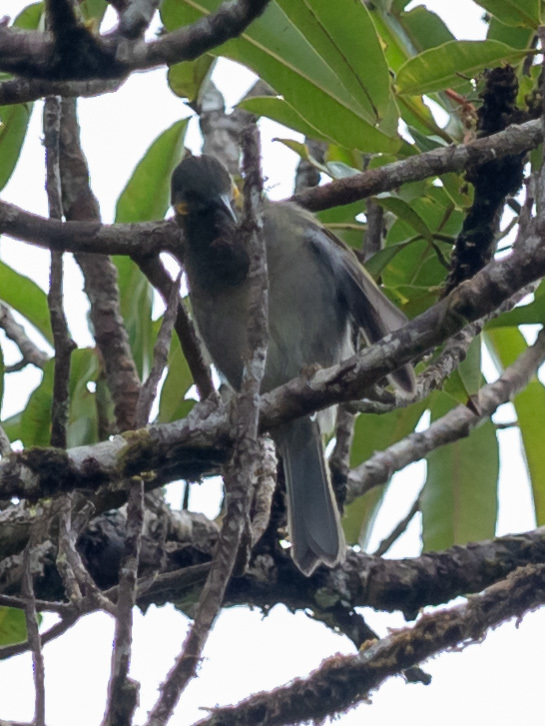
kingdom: Animalia
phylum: Chordata
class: Aves
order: Passeriformes
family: Meliphagidae
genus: Foulehaio
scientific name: Foulehaio taviunensis
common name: Fiji wattled honeyeater
